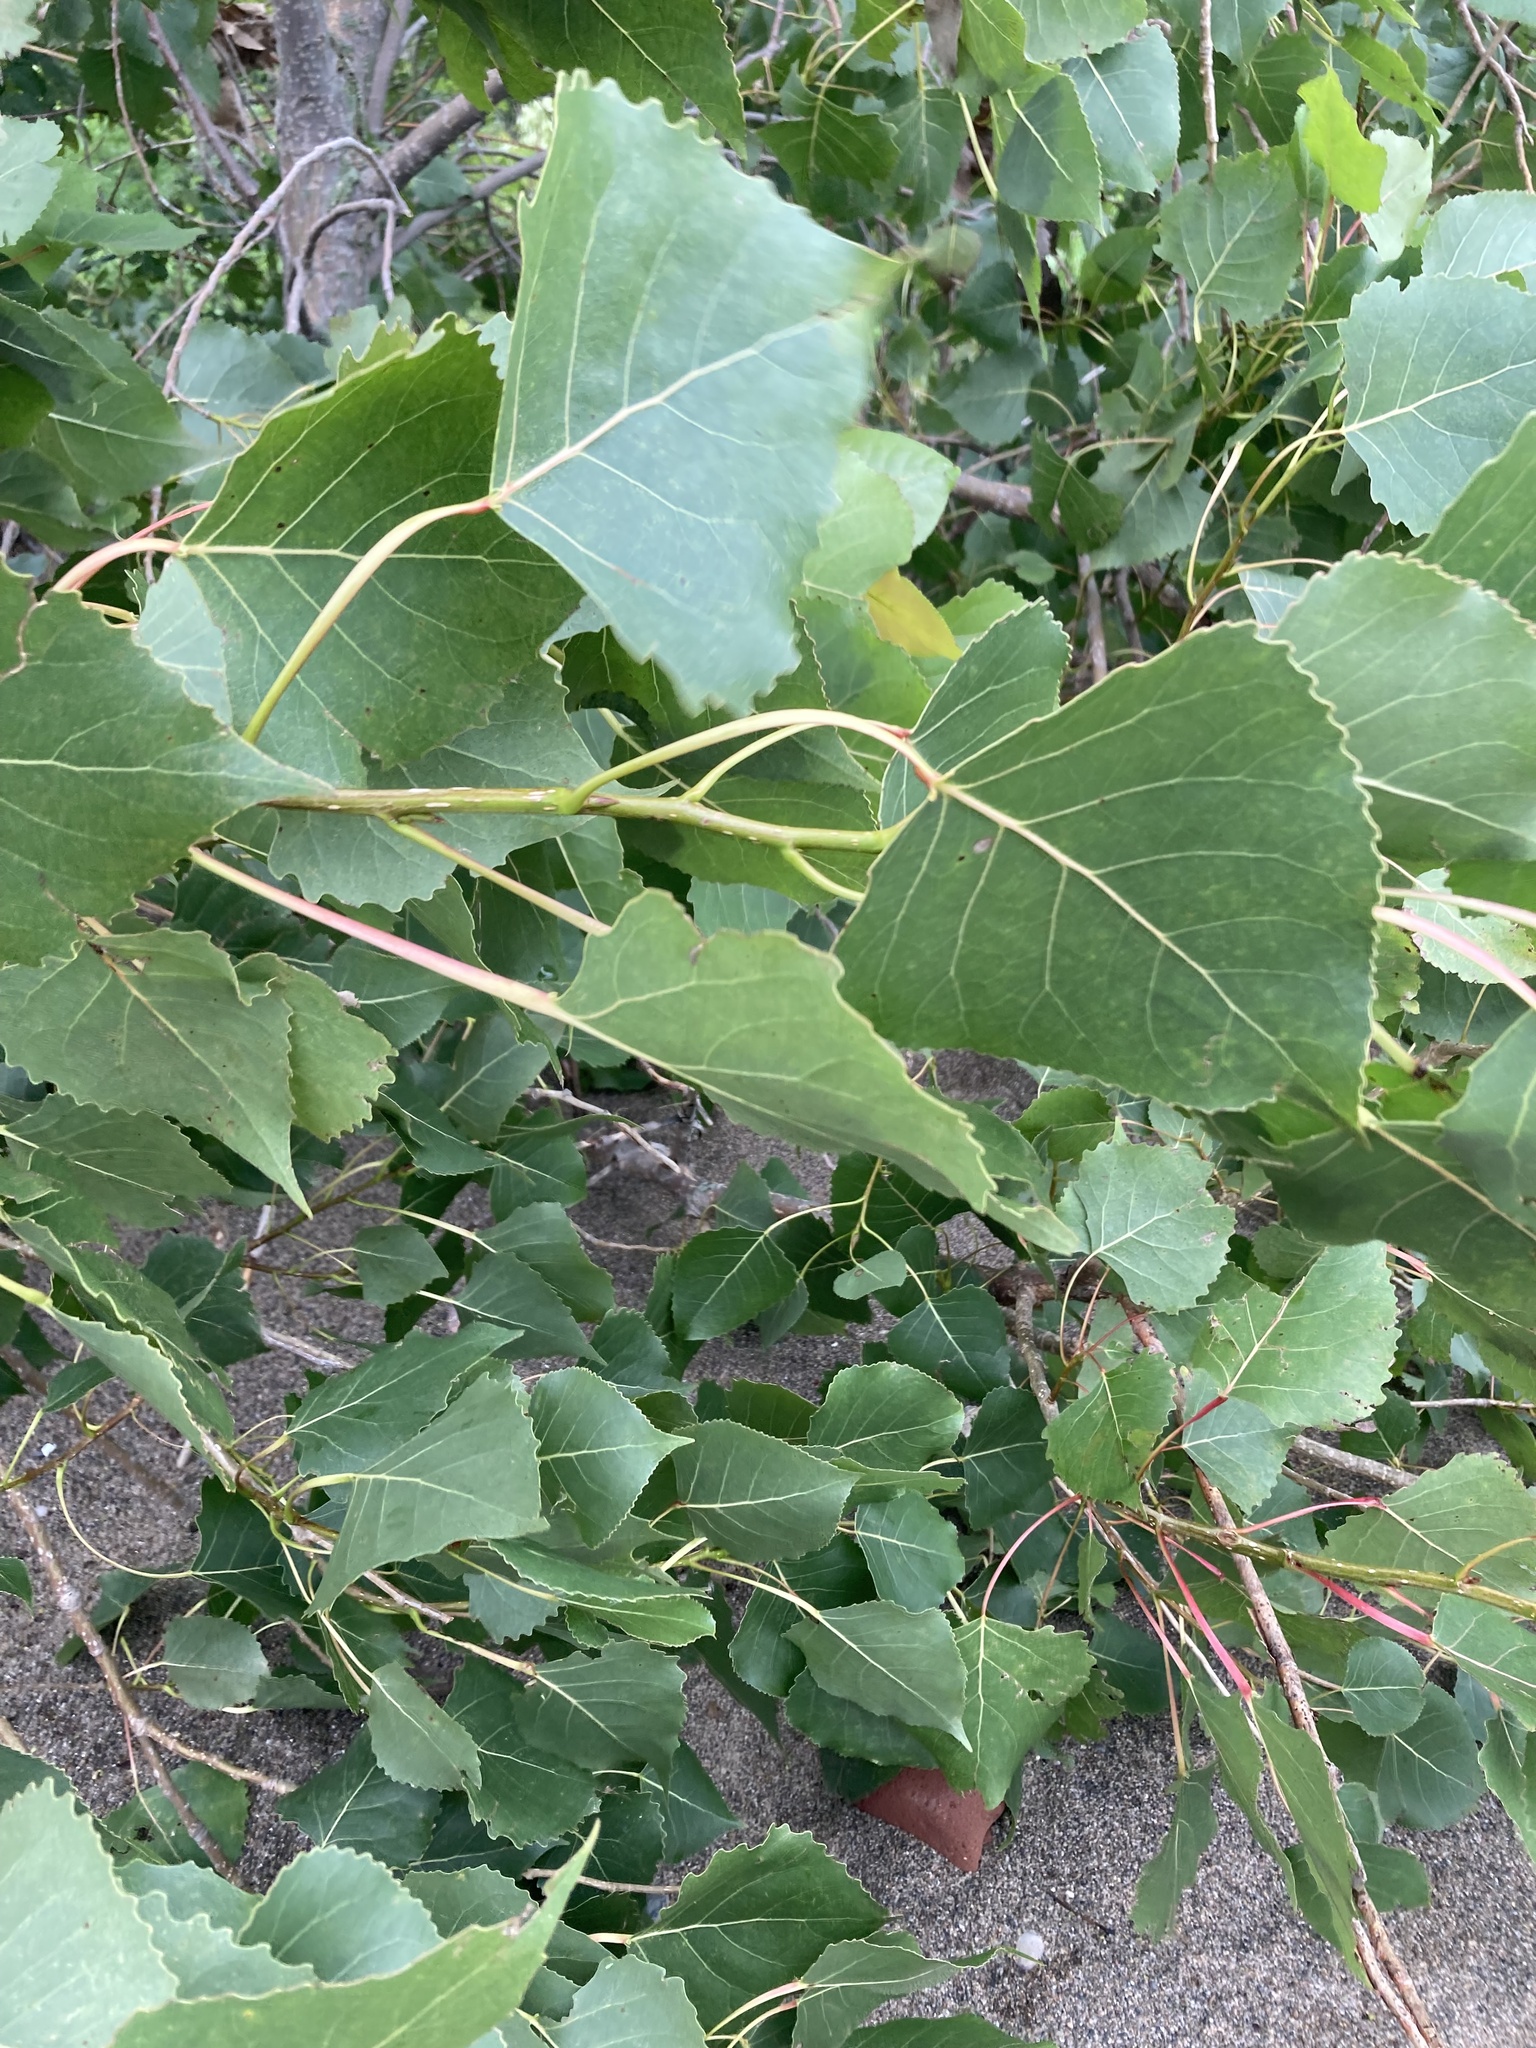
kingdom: Plantae
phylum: Tracheophyta
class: Magnoliopsida
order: Malpighiales
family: Salicaceae
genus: Populus
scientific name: Populus deltoides
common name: Eastern cottonwood
